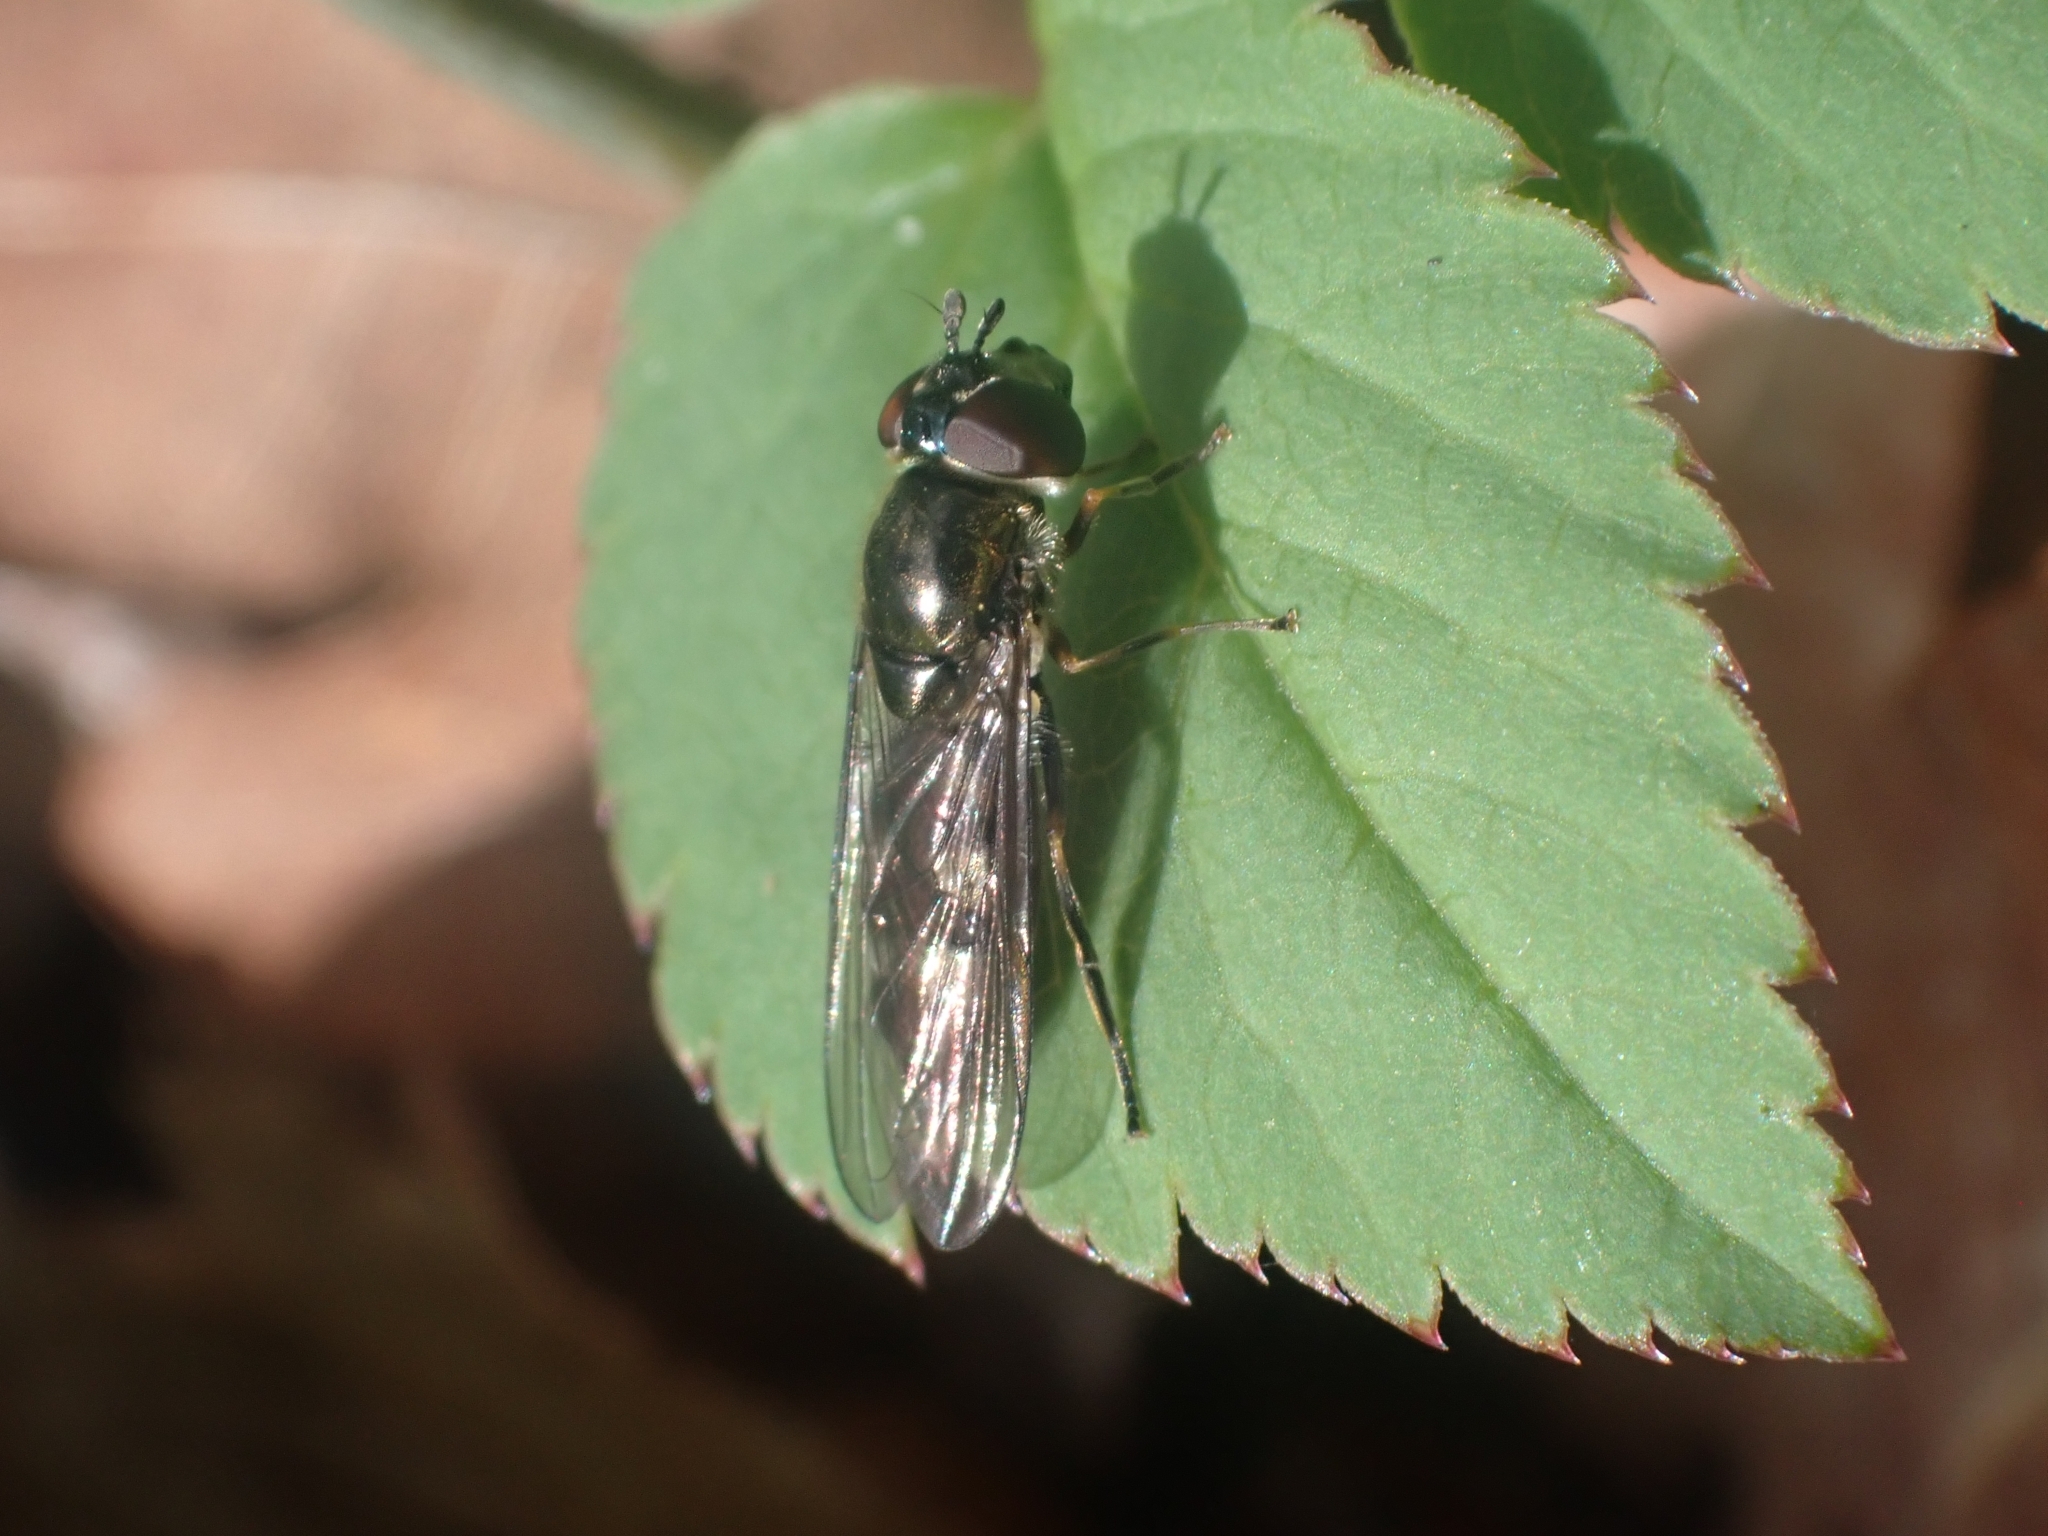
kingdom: Animalia
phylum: Arthropoda
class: Insecta
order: Diptera
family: Syrphidae
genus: Platycheirus
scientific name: Platycheirus albimanus
